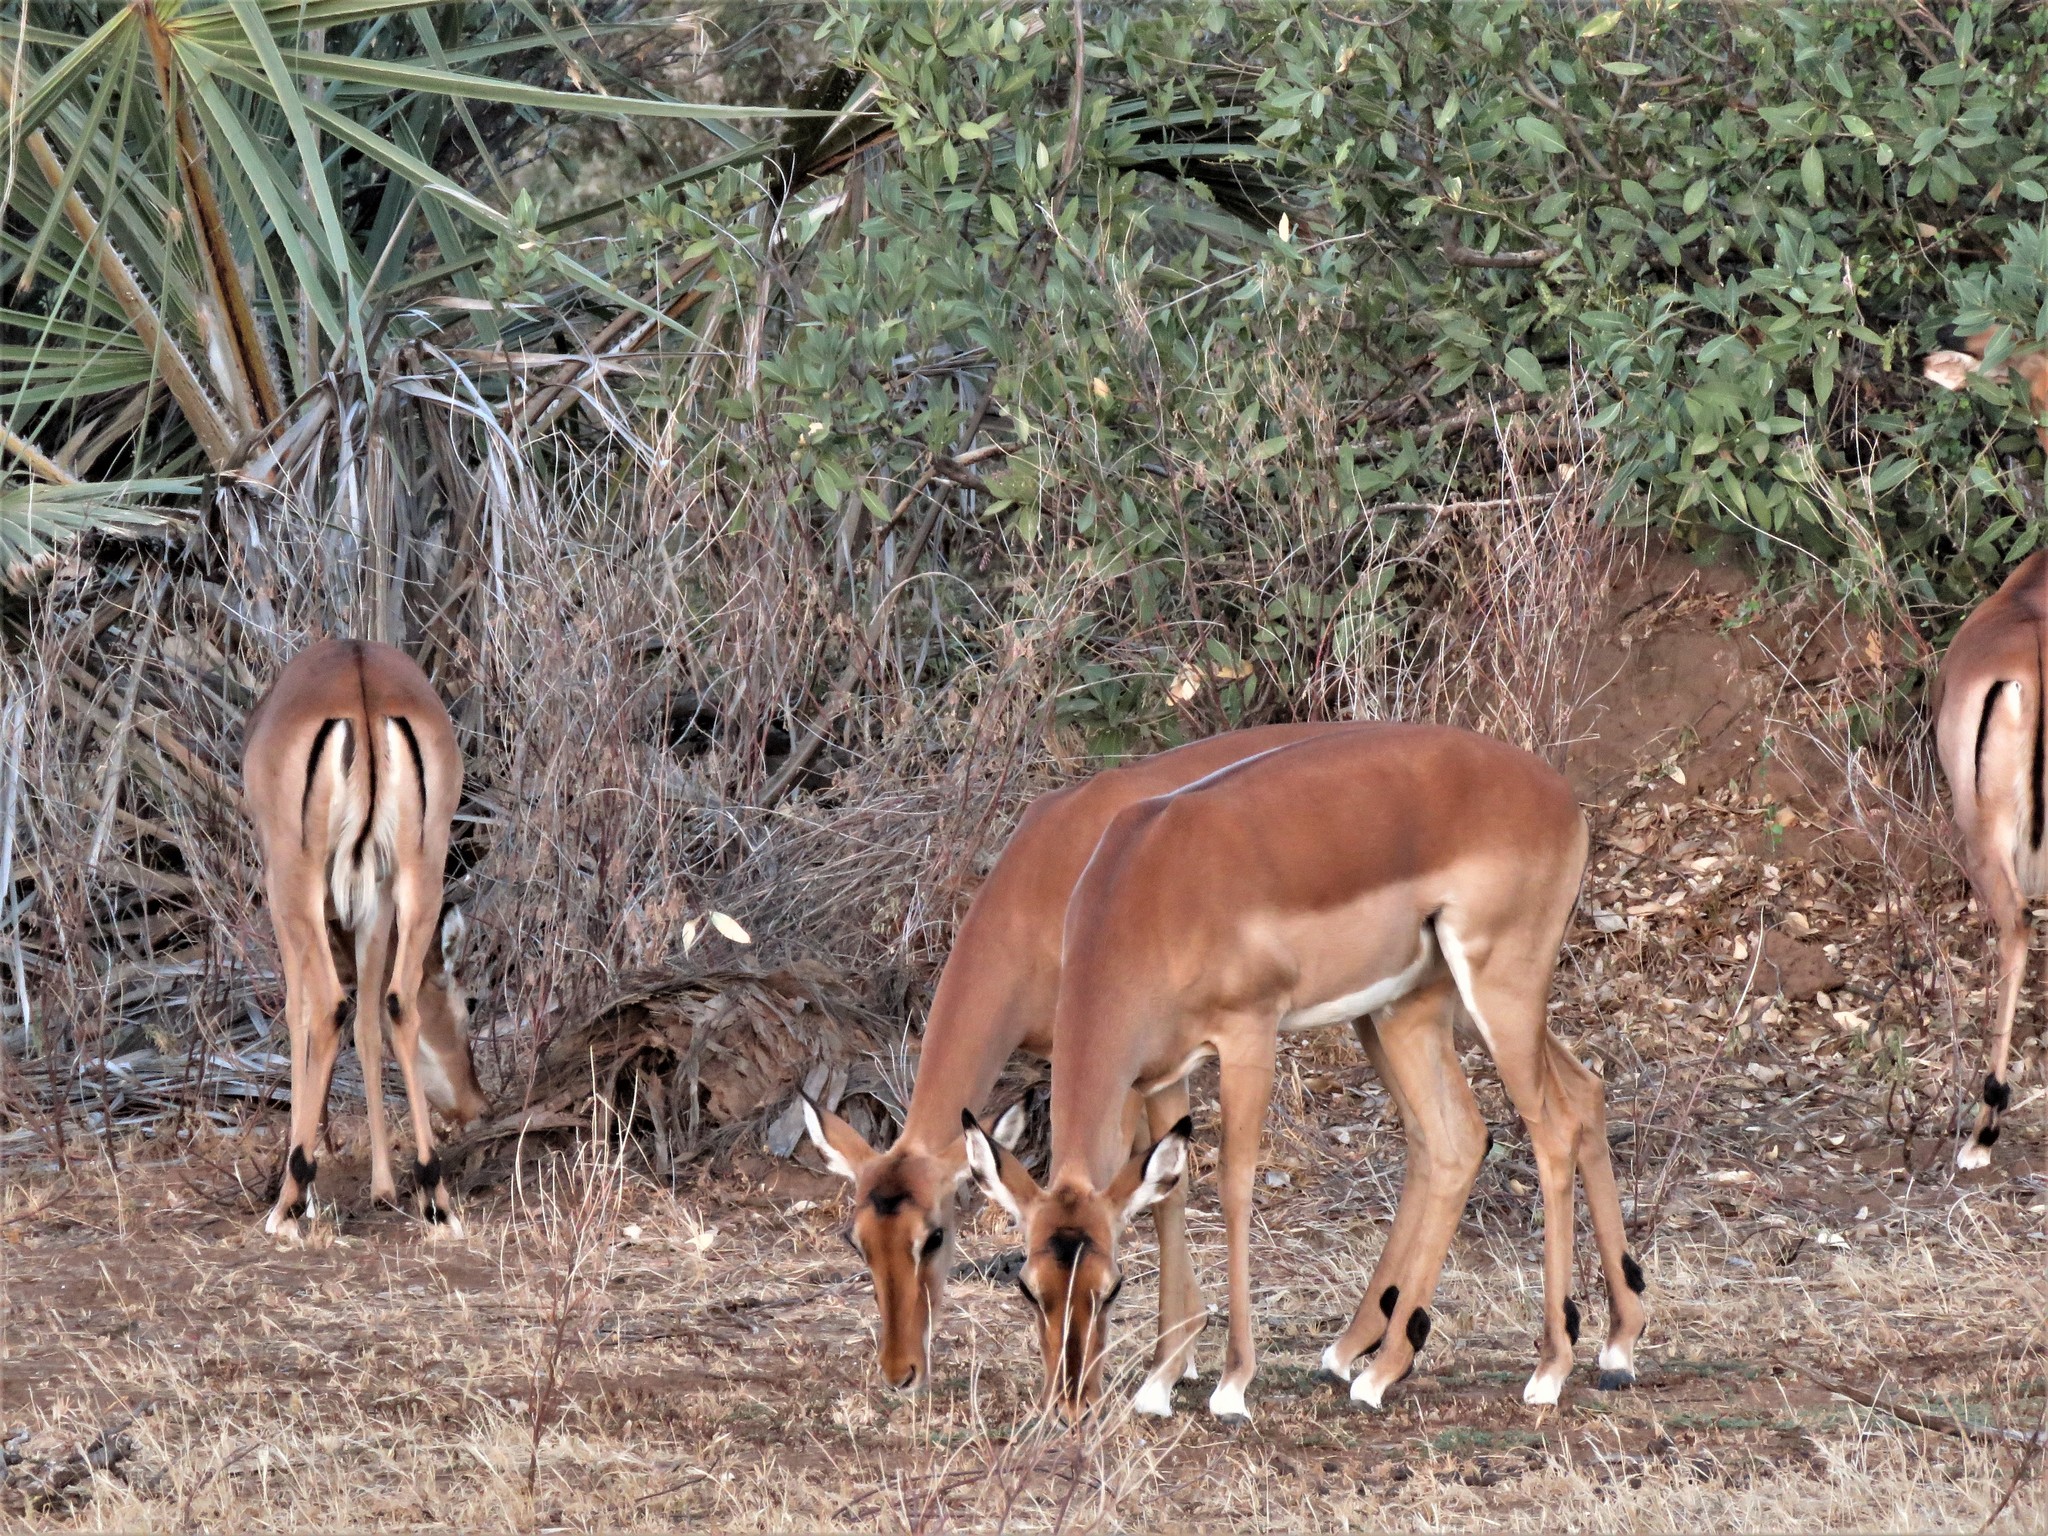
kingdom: Animalia
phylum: Chordata
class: Mammalia
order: Artiodactyla
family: Bovidae
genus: Aepyceros
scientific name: Aepyceros melampus
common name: Impala
